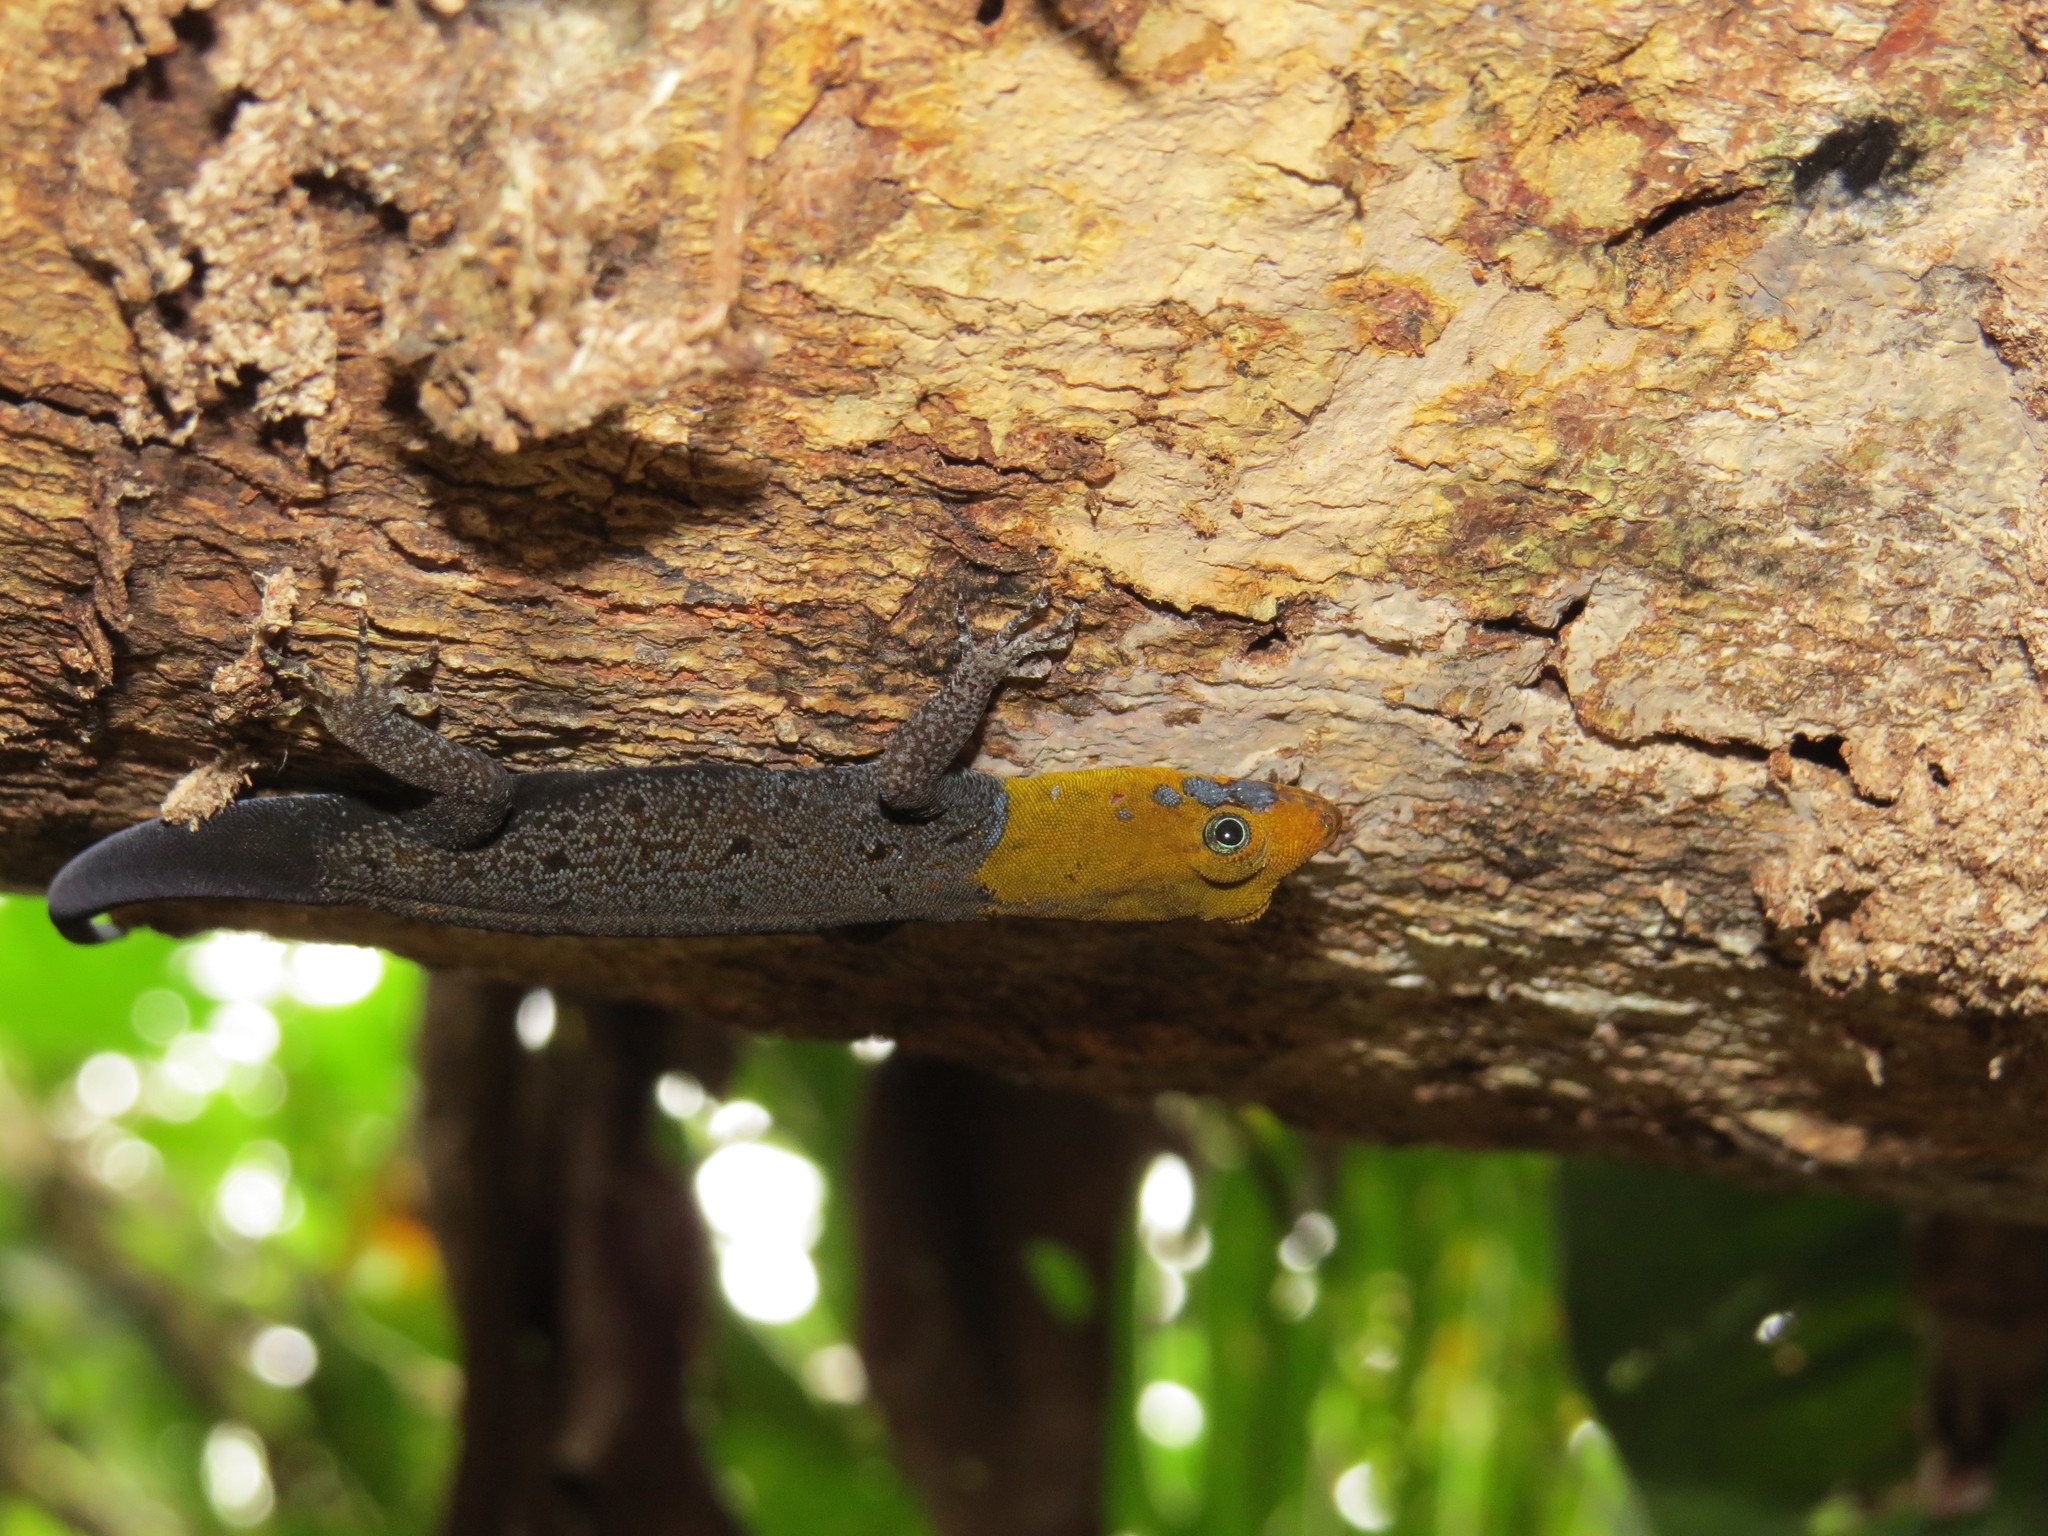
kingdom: Animalia
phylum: Chordata
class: Squamata
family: Sphaerodactylidae
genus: Gonatodes
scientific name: Gonatodes albogularis
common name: Yellow-headed gecko
